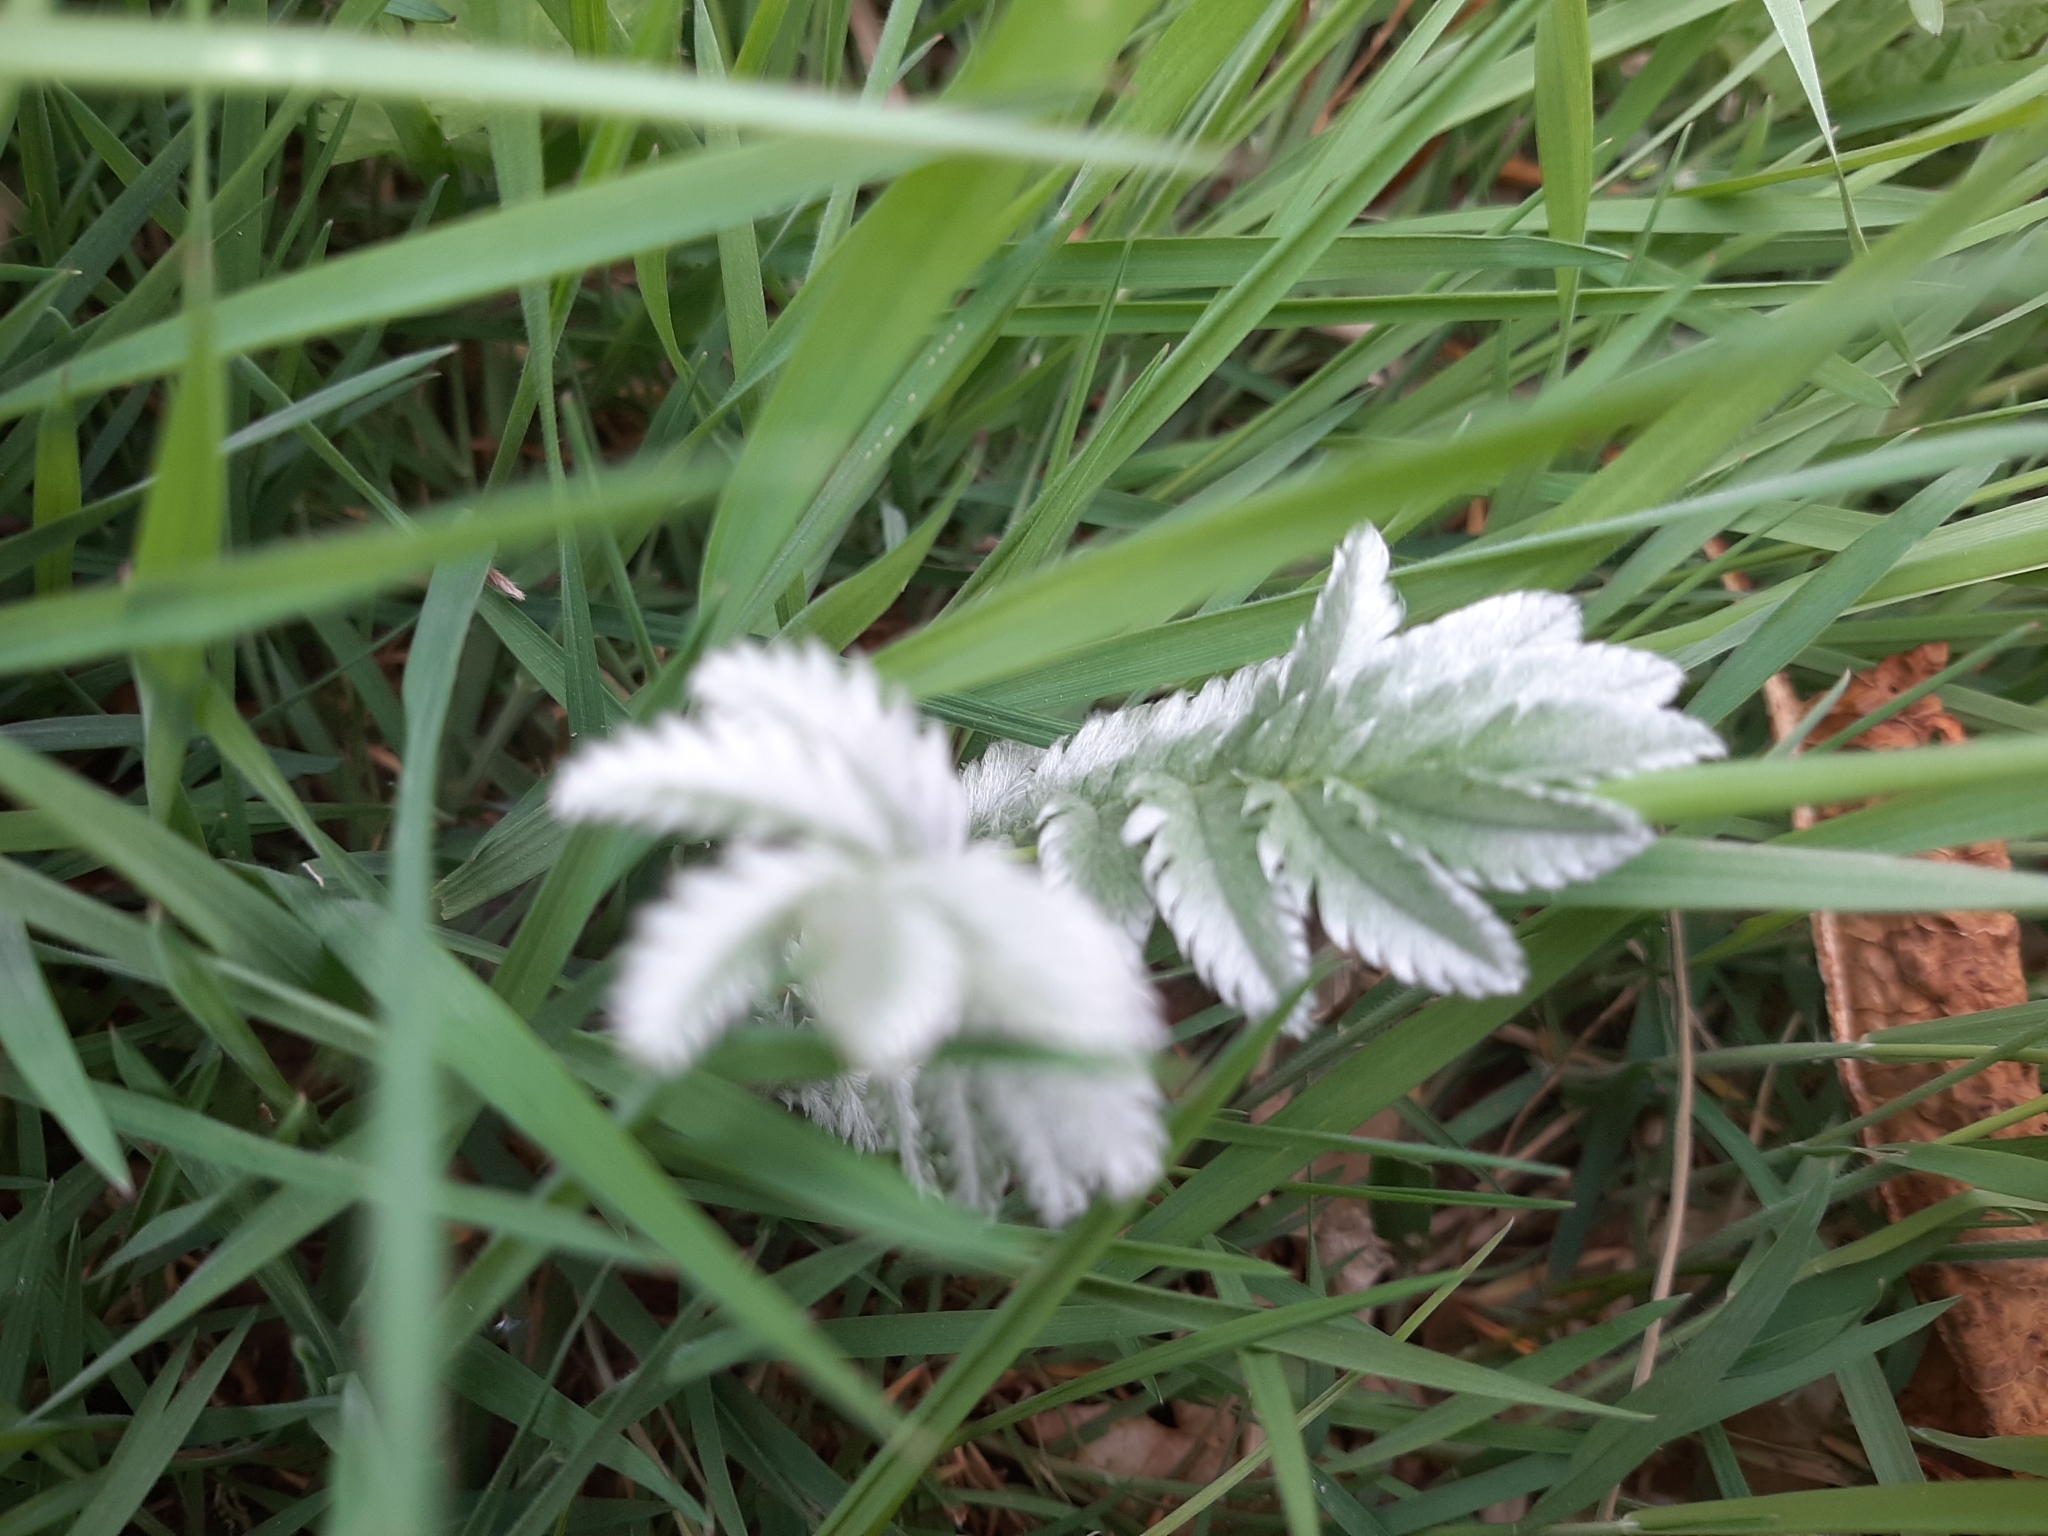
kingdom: Plantae
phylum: Tracheophyta
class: Magnoliopsida
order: Rosales
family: Rosaceae
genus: Argentina
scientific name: Argentina anserina
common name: Common silverweed
